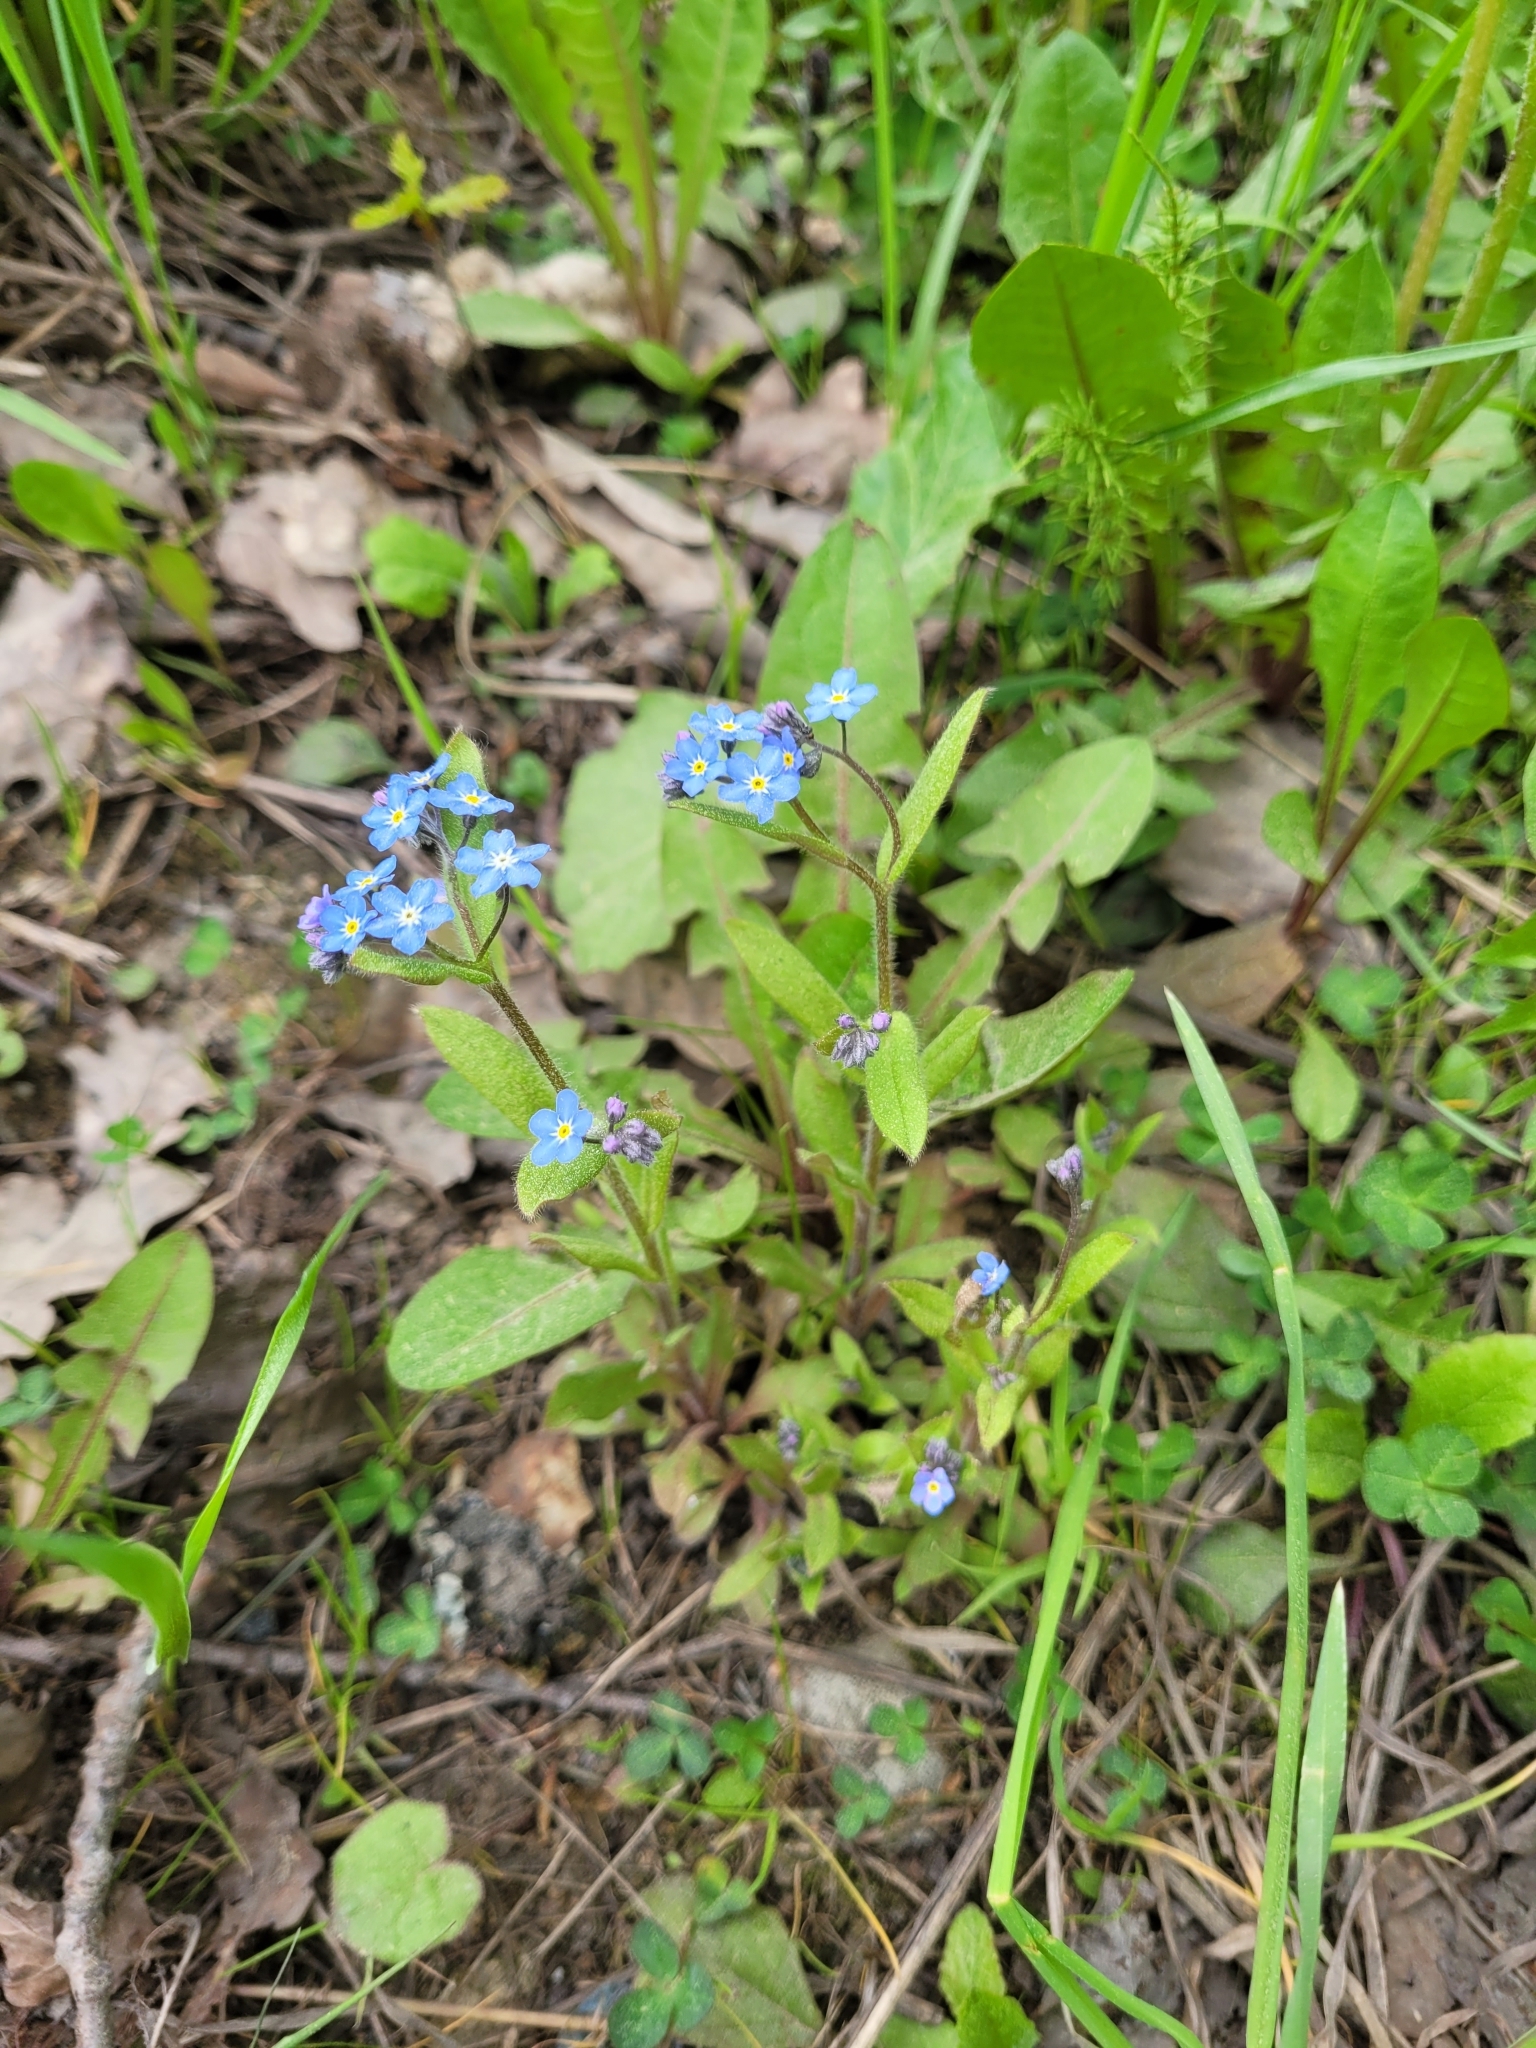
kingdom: Plantae
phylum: Tracheophyta
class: Magnoliopsida
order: Boraginales
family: Boraginaceae
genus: Myosotis
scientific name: Myosotis sylvatica
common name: Wood forget-me-not
